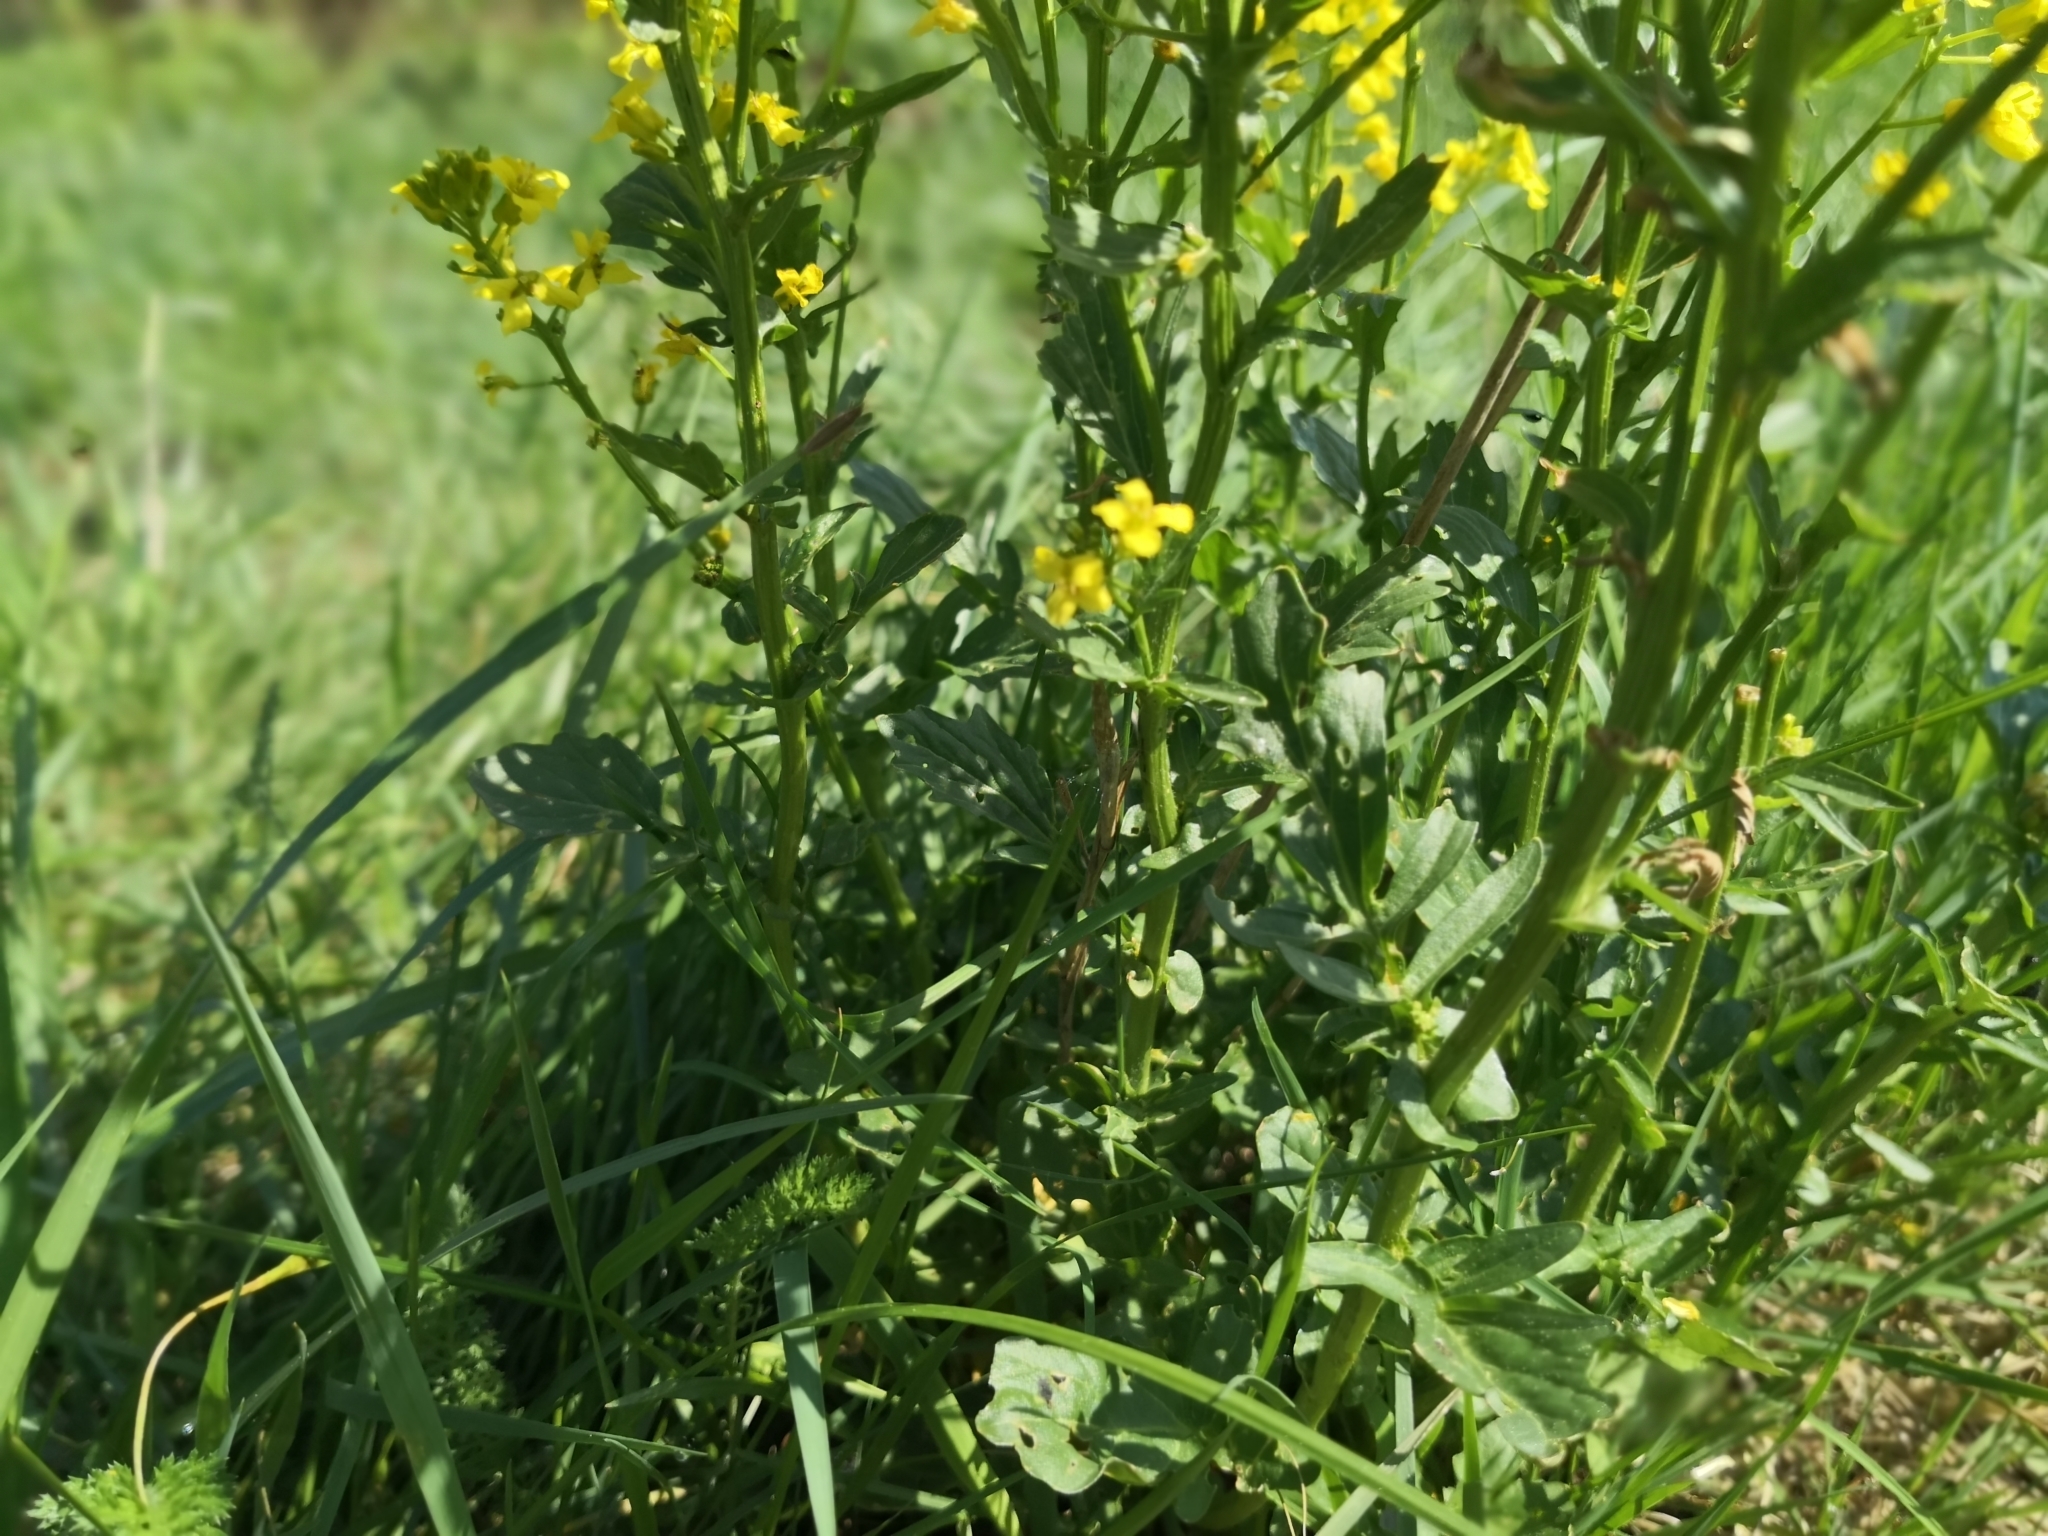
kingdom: Plantae
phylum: Tracheophyta
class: Magnoliopsida
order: Brassicales
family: Brassicaceae
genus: Barbarea
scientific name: Barbarea vulgaris
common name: Cressy-greens
